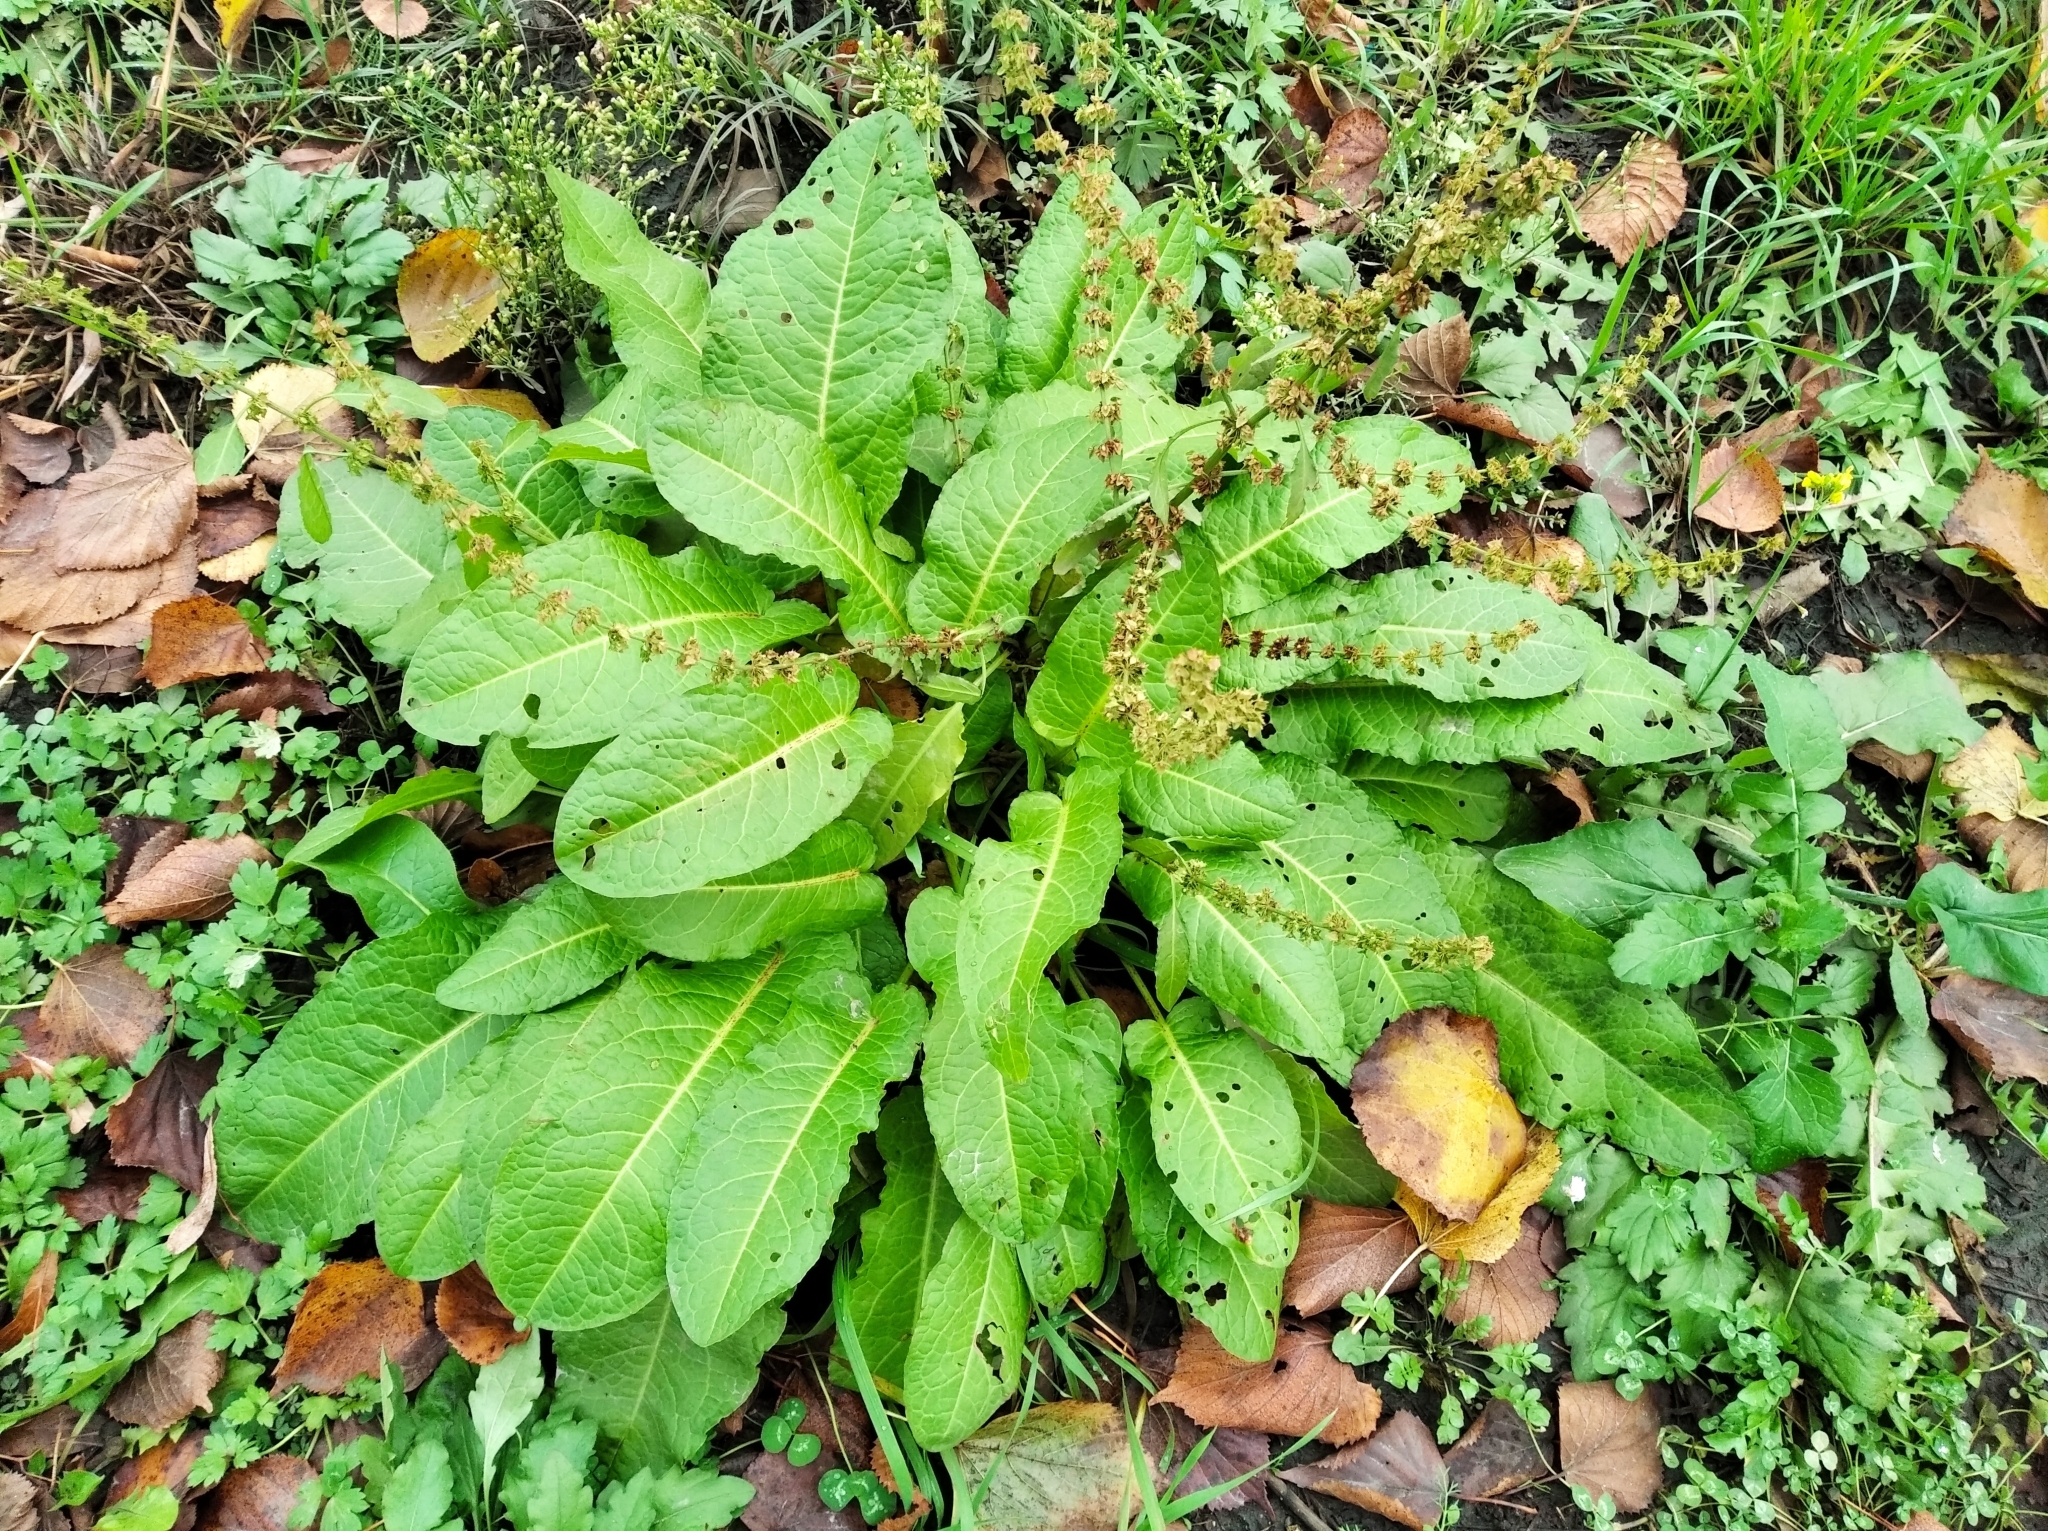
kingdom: Plantae
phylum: Tracheophyta
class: Magnoliopsida
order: Caryophyllales
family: Polygonaceae
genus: Rumex
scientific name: Rumex obtusifolius
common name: Bitter dock
